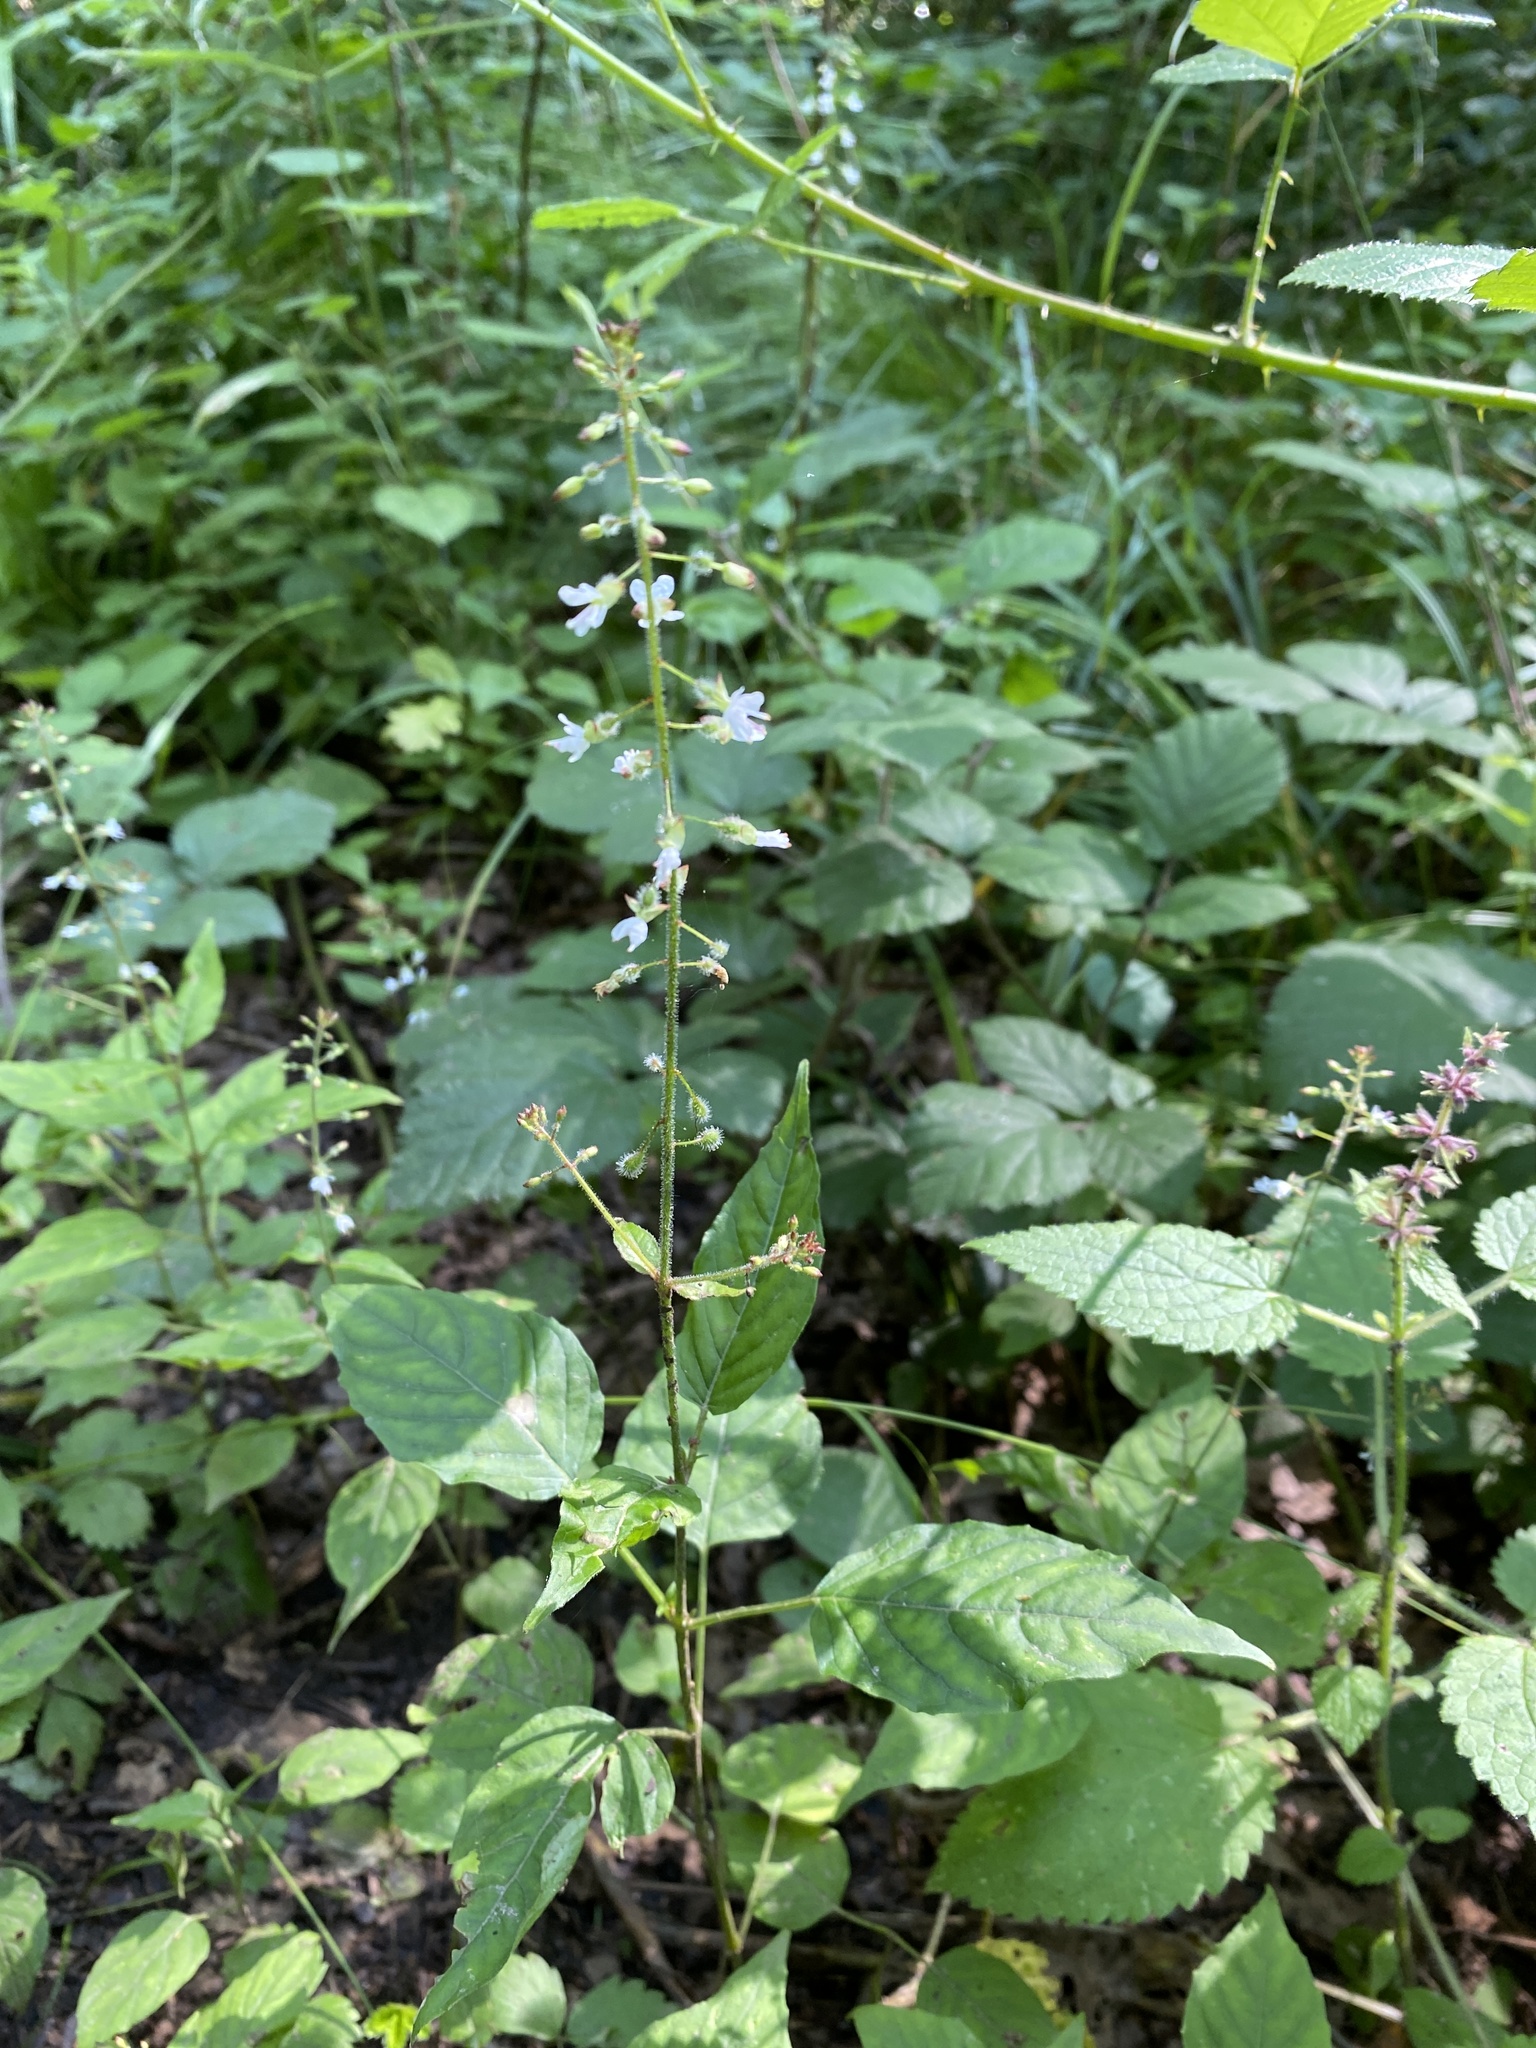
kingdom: Plantae
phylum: Tracheophyta
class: Magnoliopsida
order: Myrtales
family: Onagraceae
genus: Circaea
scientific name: Circaea lutetiana
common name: Enchanter's-nightshade
